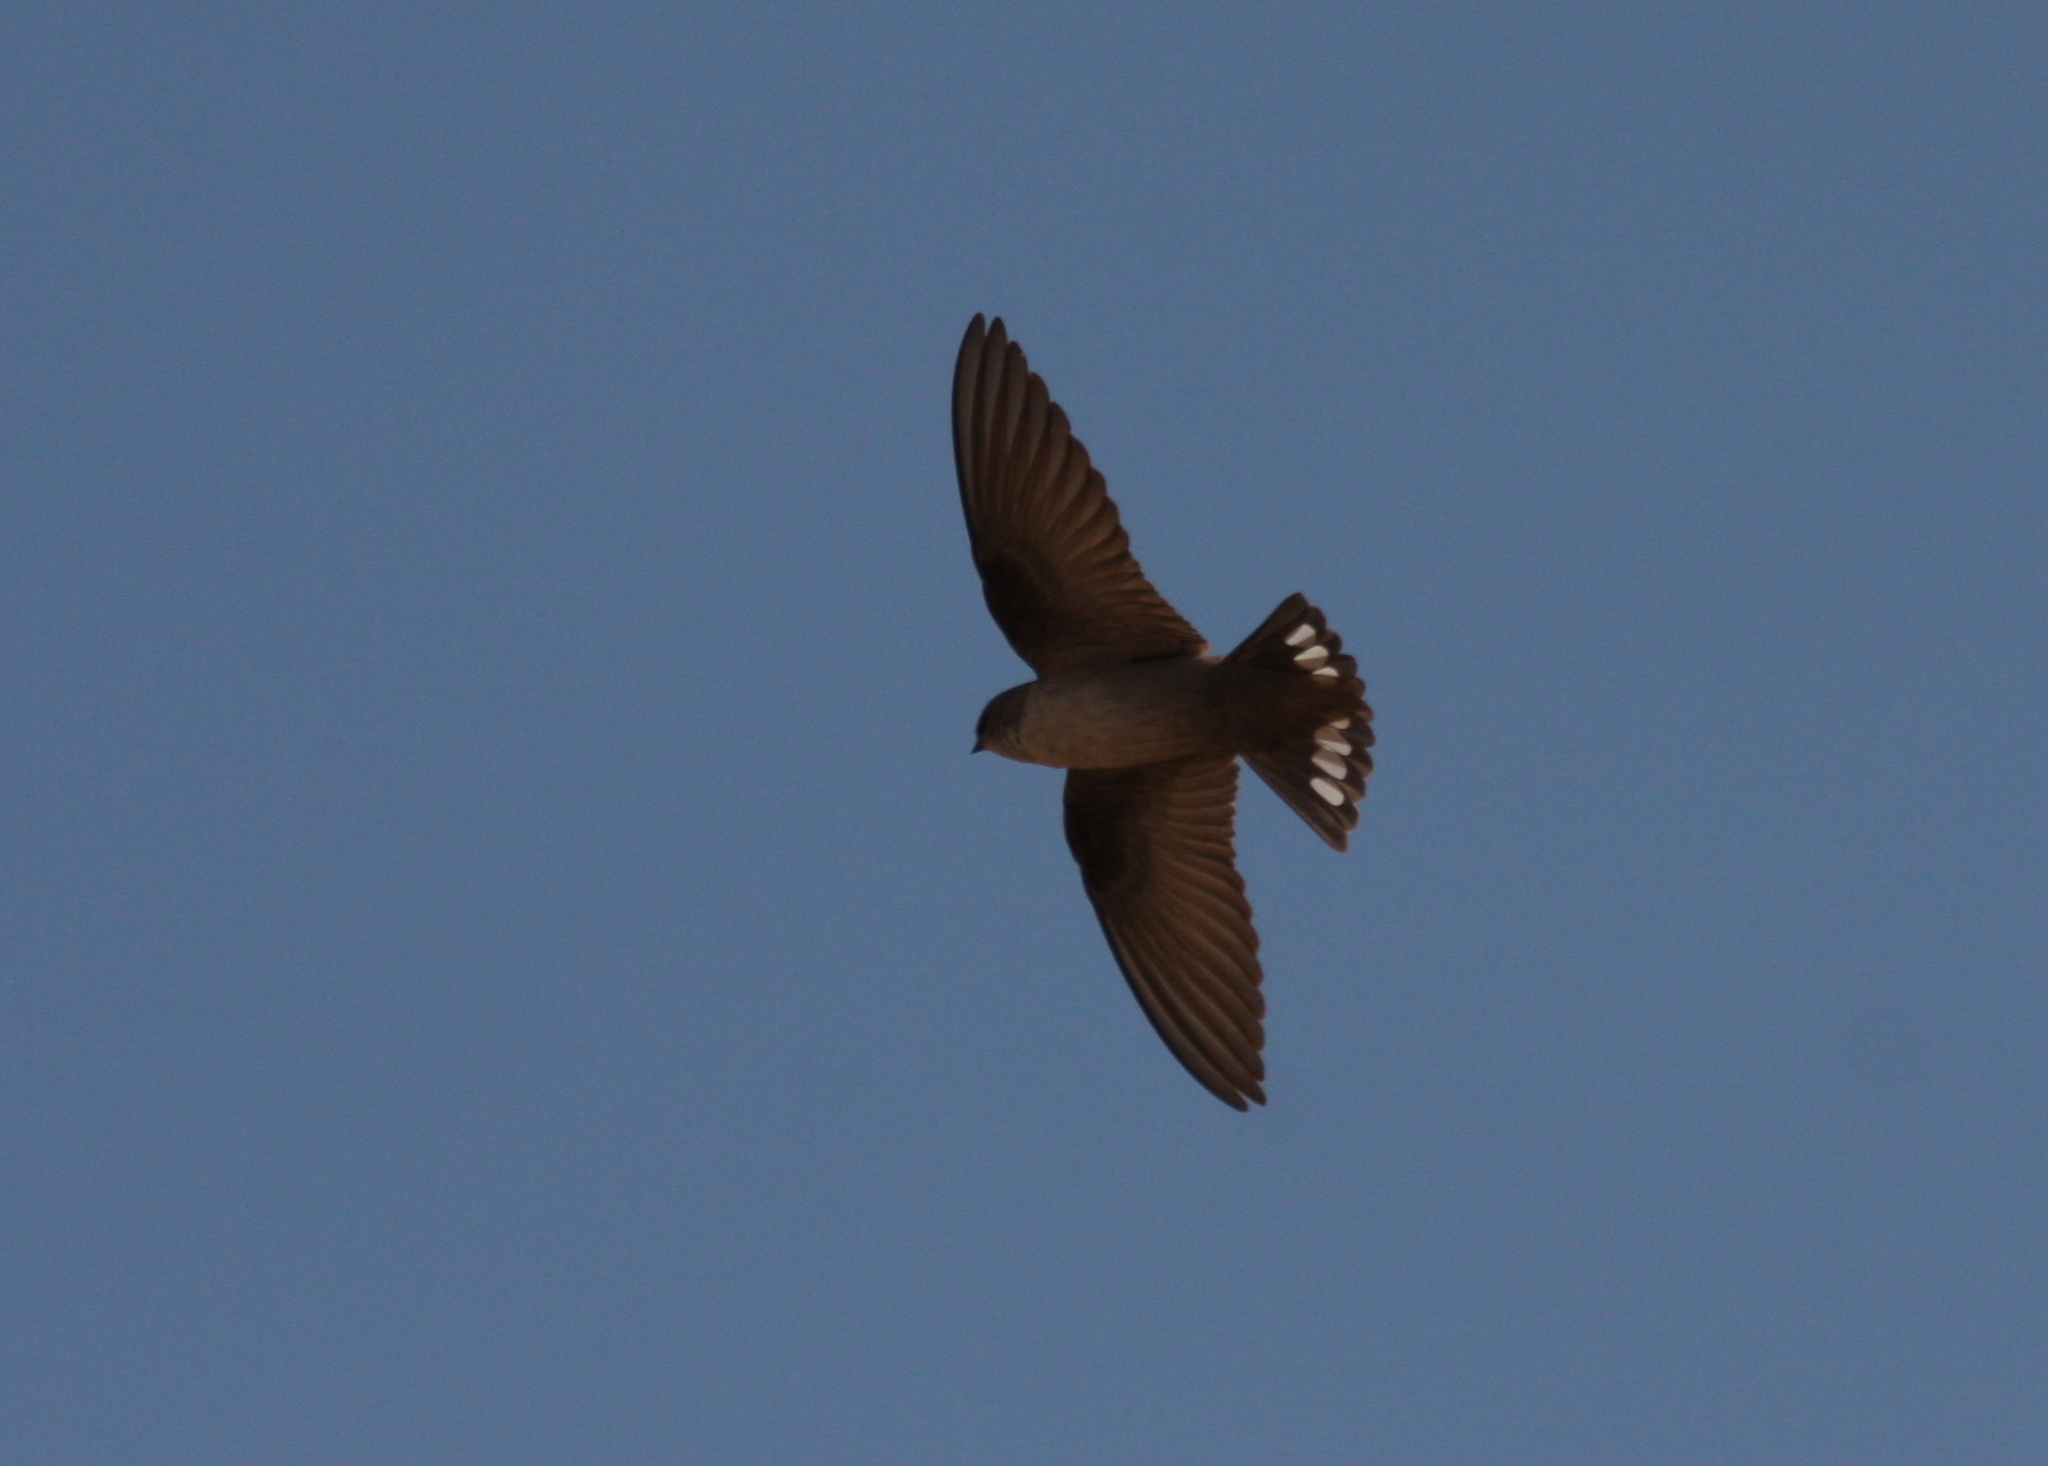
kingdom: Animalia
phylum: Chordata
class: Aves
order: Passeriformes
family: Hirundinidae
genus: Ptyonoprogne
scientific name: Ptyonoprogne fuligula
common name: Rock martin
